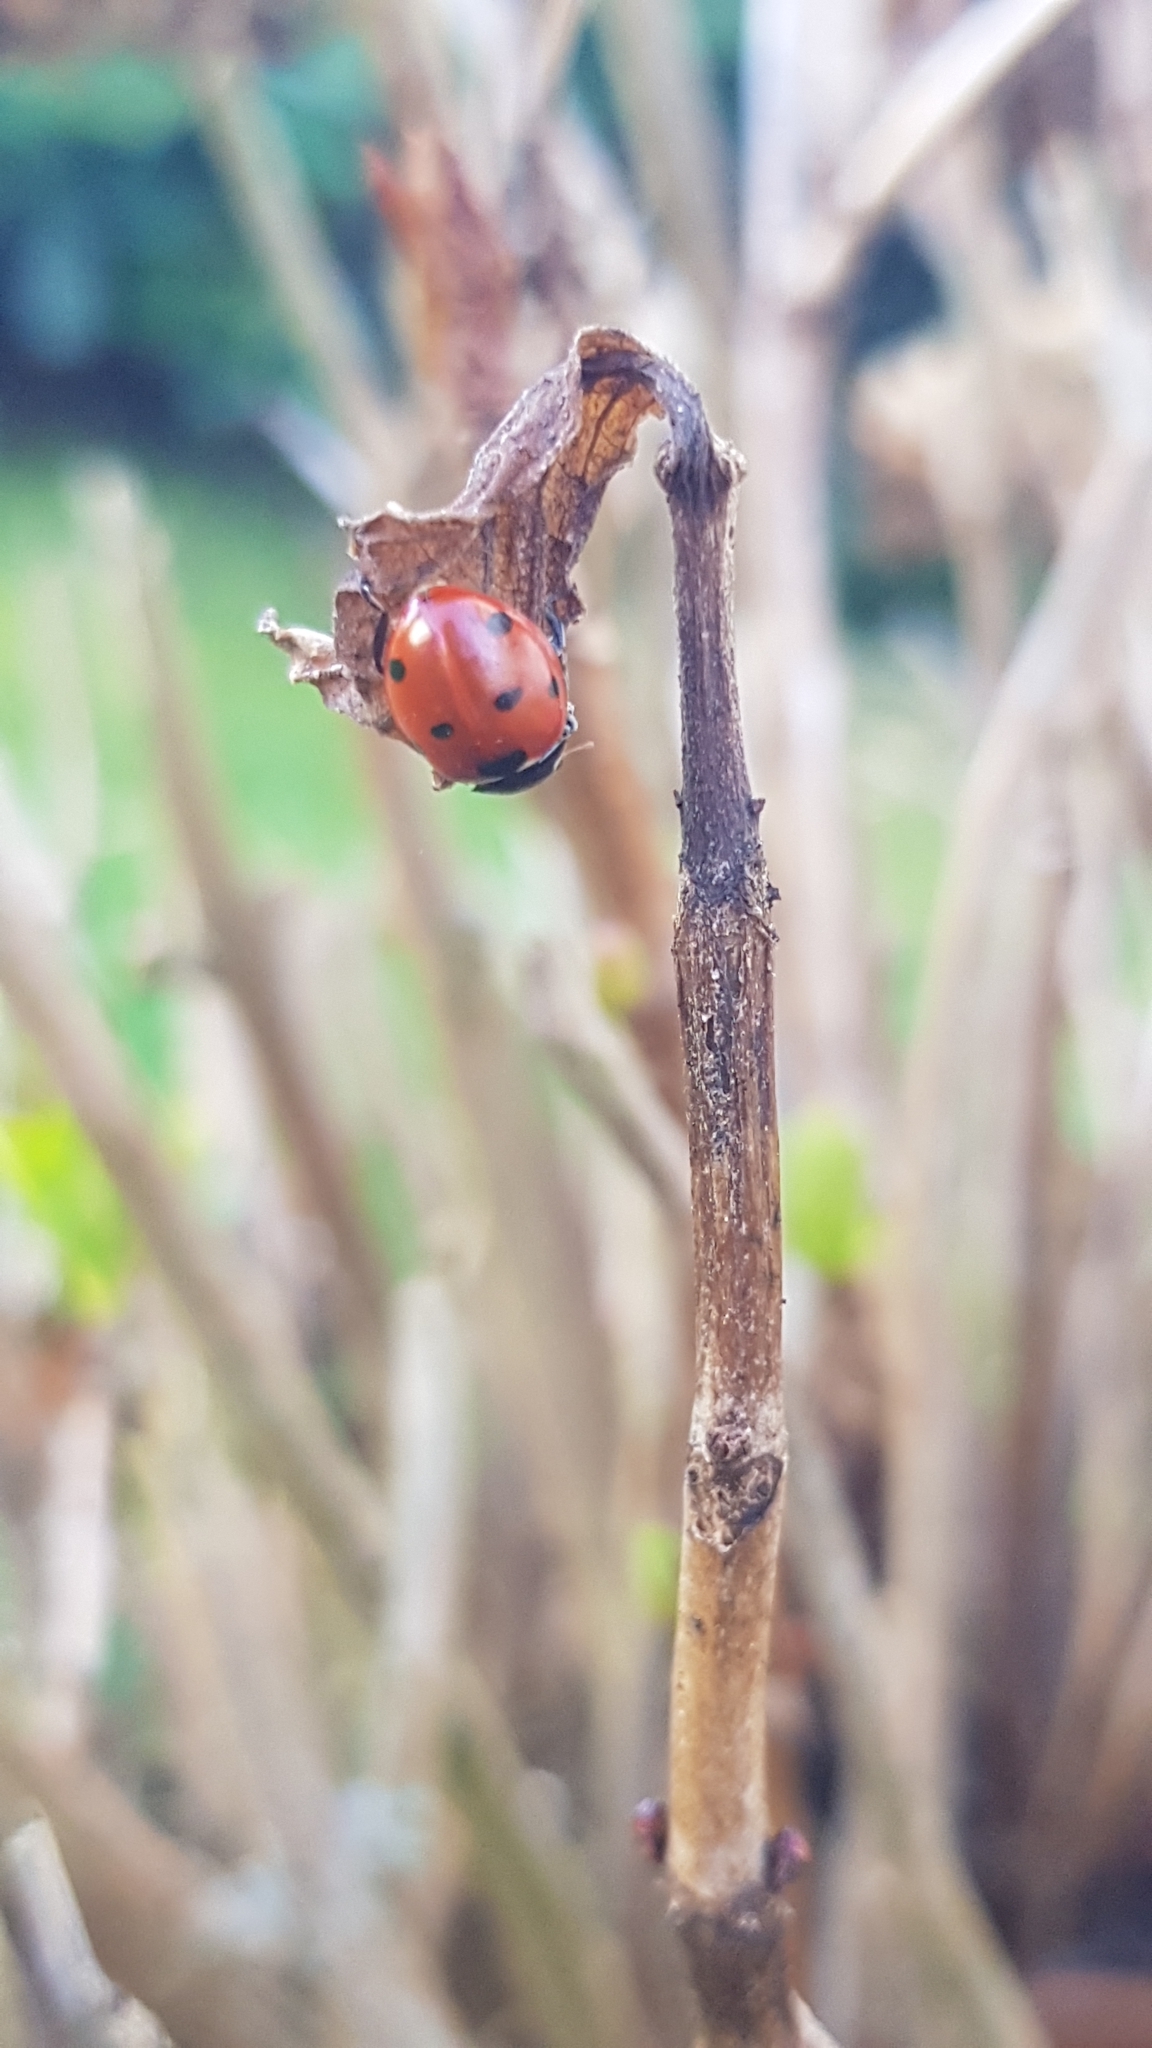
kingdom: Animalia
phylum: Arthropoda
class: Insecta
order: Coleoptera
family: Coccinellidae
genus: Coccinella
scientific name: Coccinella septempunctata
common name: Sevenspotted lady beetle
